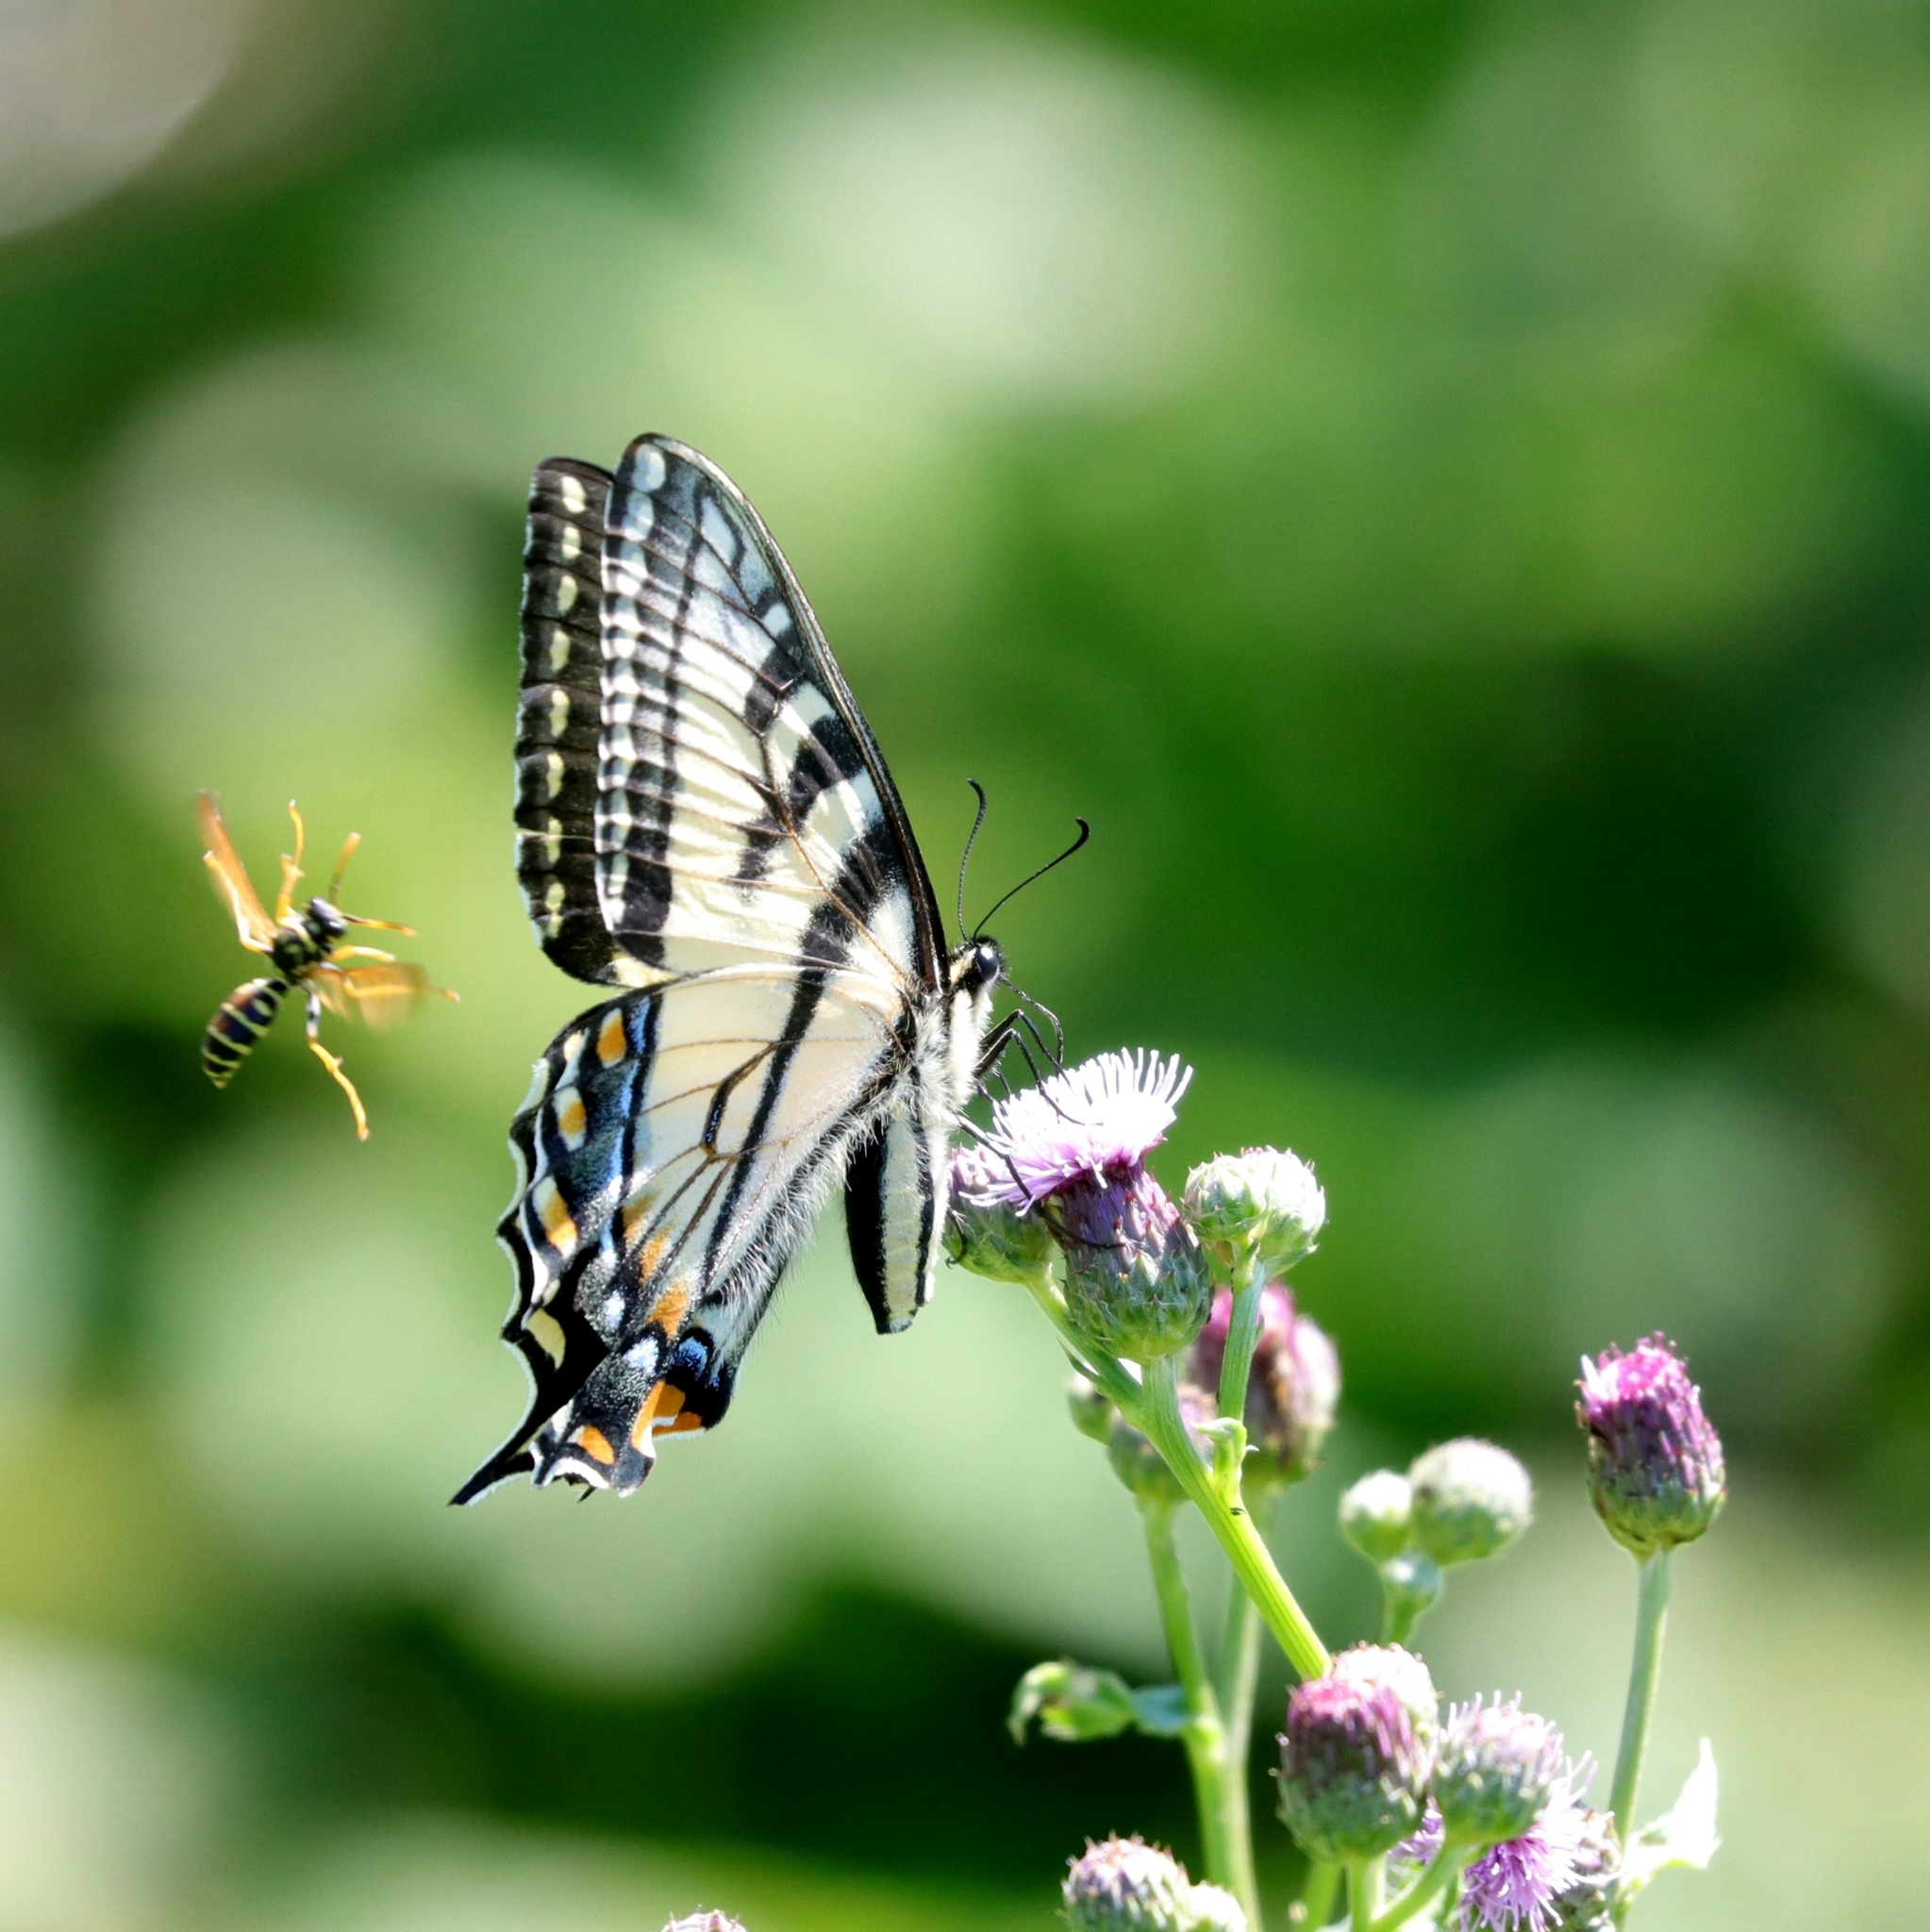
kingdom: Animalia
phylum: Arthropoda
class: Insecta
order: Lepidoptera
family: Papilionidae
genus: Papilio
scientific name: Papilio canadensis
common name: Canadian tiger swallowtail
